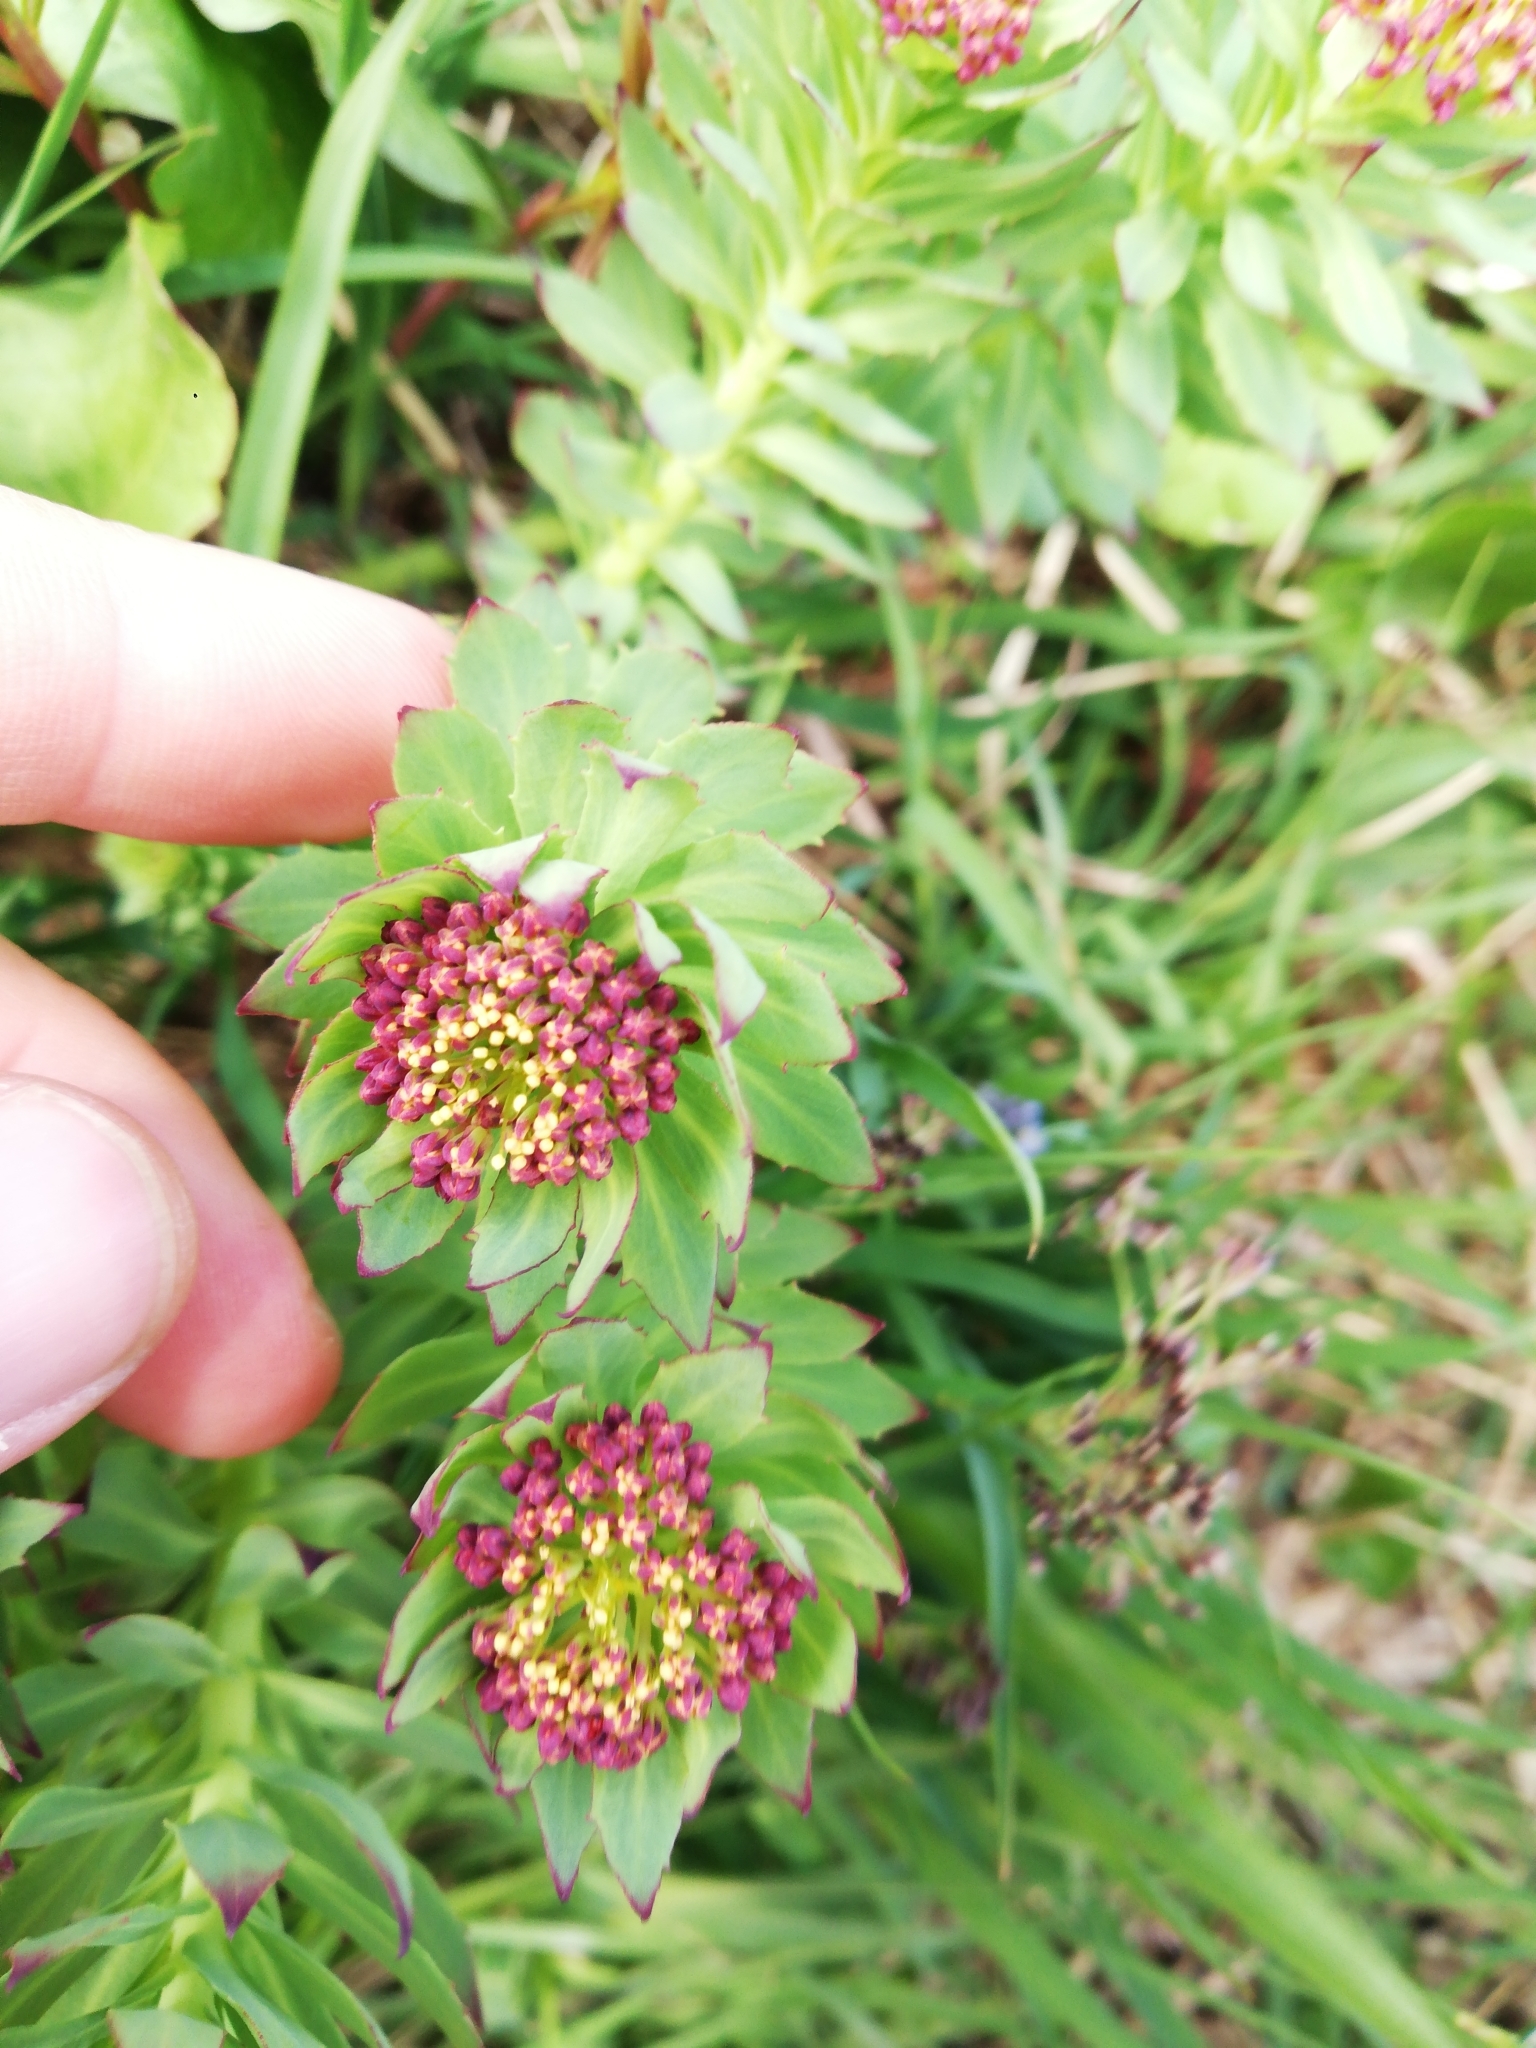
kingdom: Plantae
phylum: Tracheophyta
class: Magnoliopsida
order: Saxifragales
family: Crassulaceae
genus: Rhodiola
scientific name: Rhodiola rosea
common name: Roseroot
